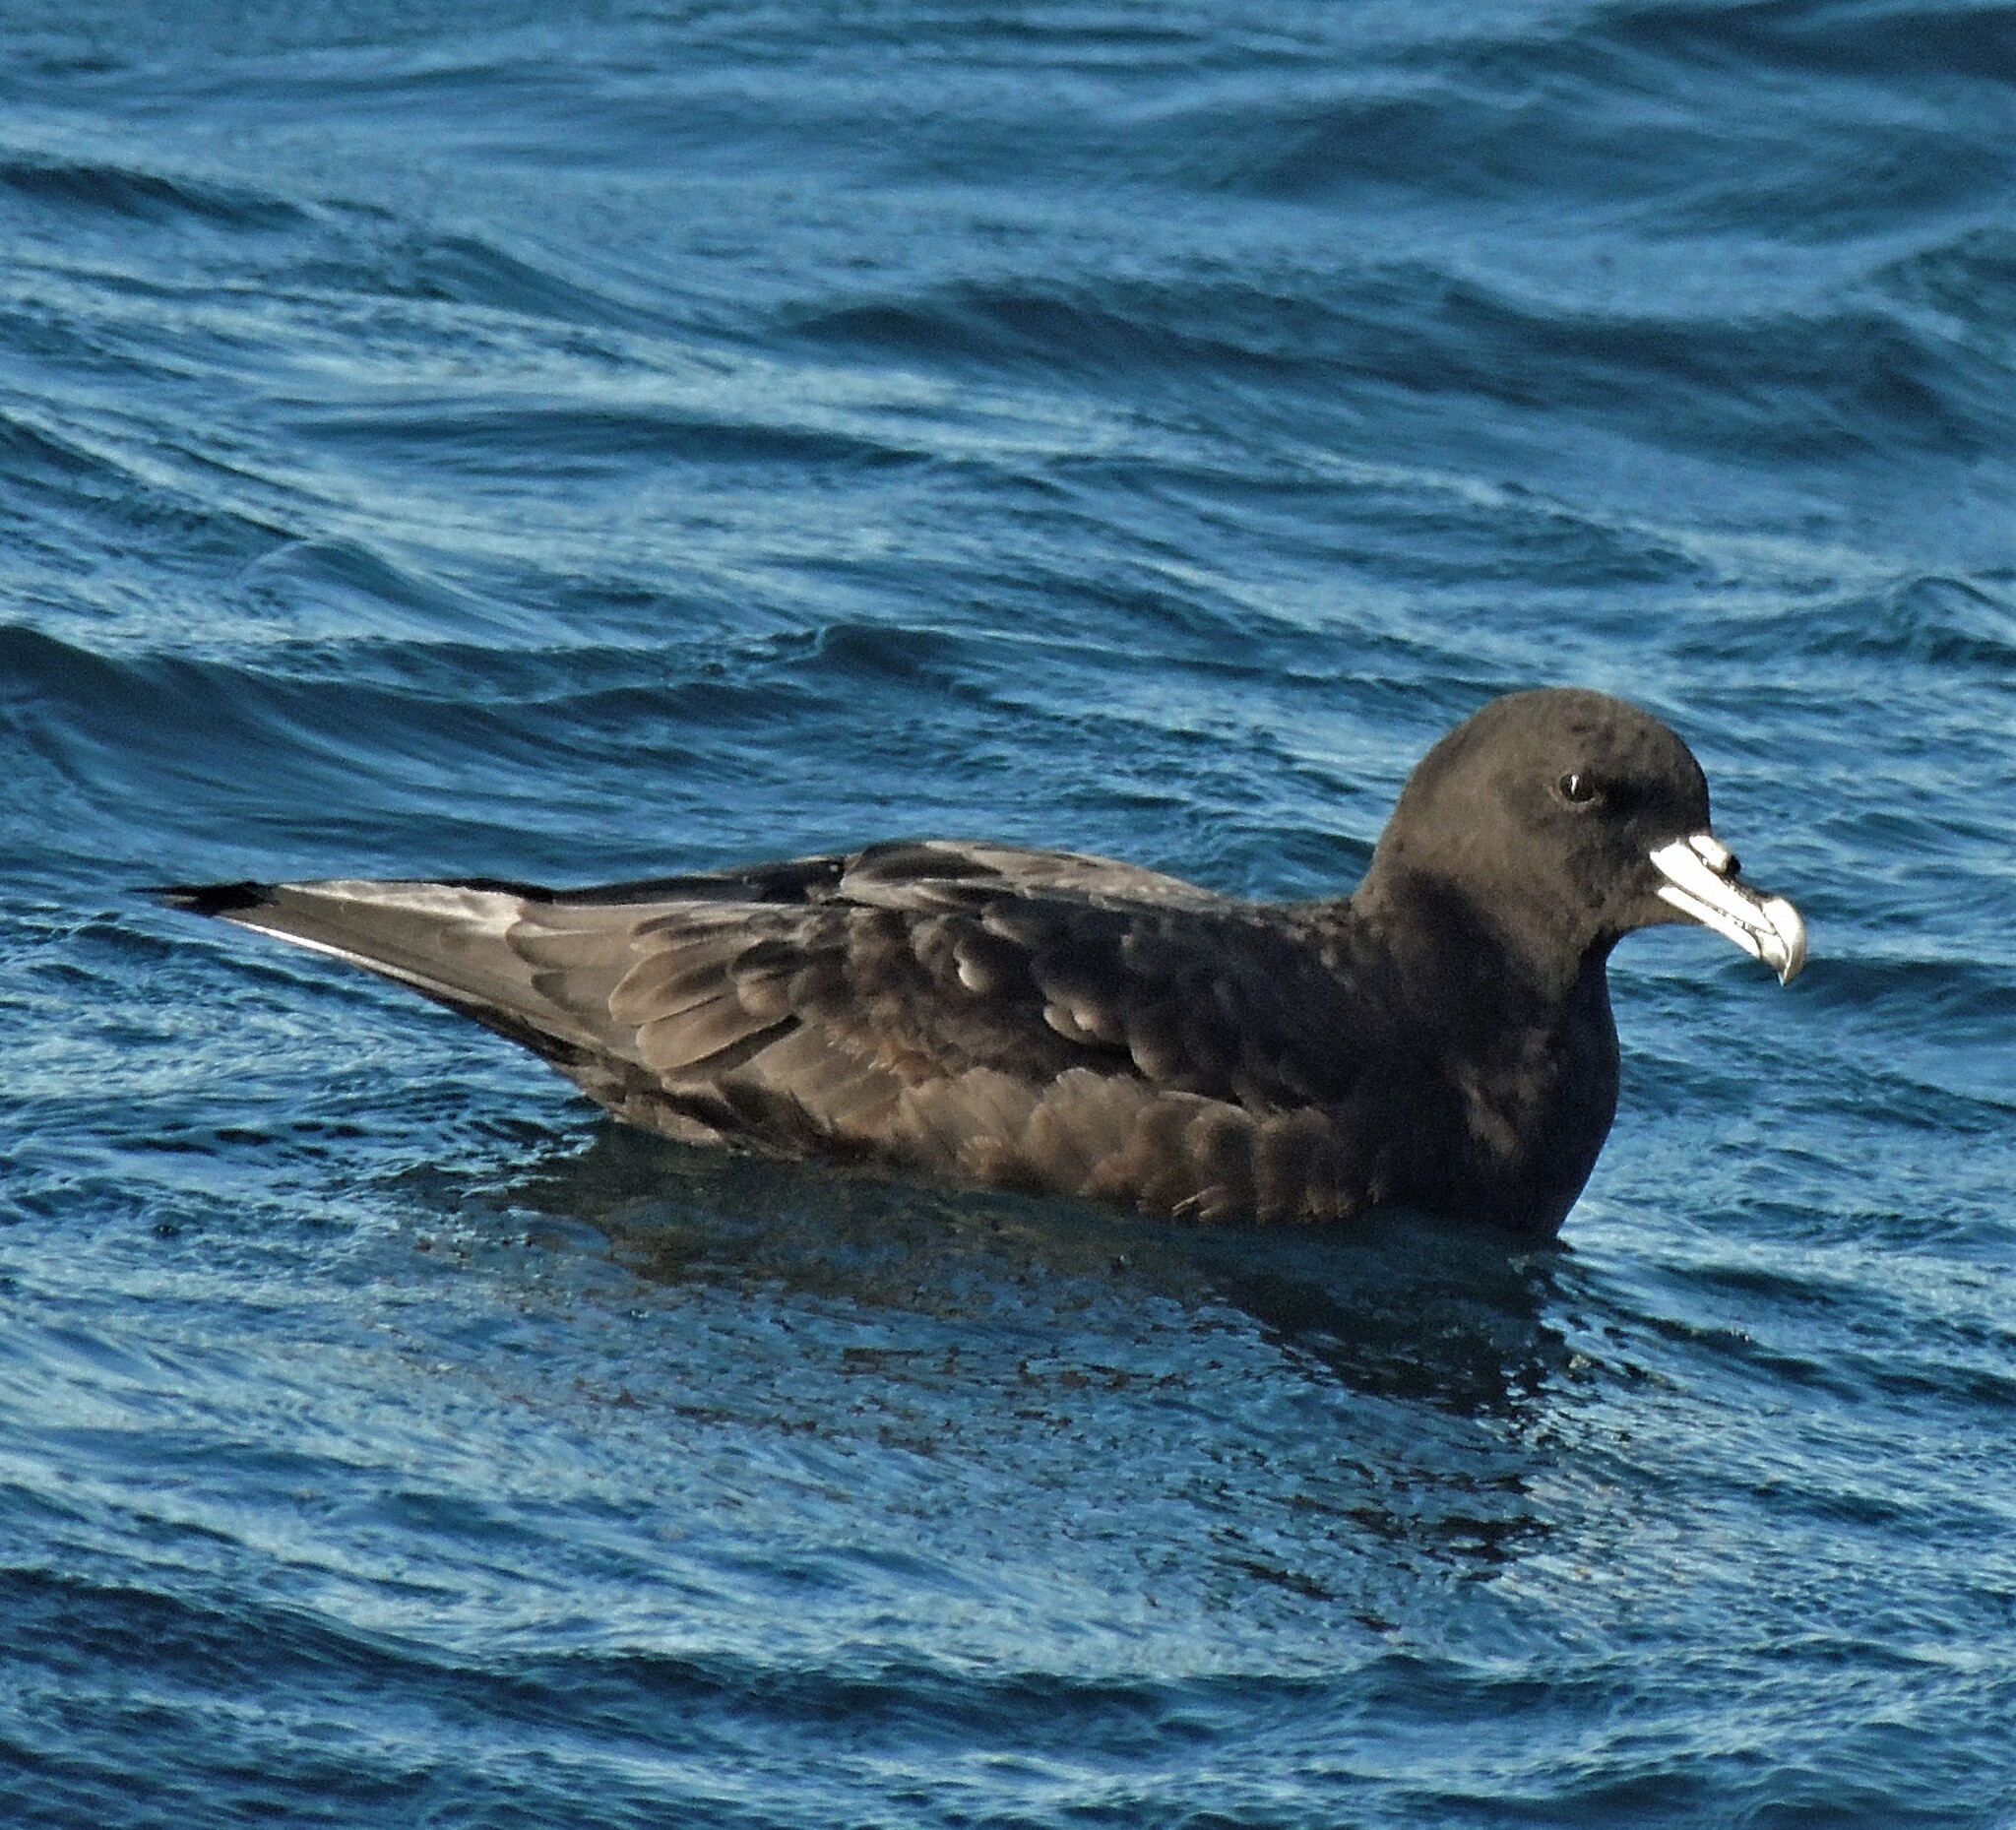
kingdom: Animalia
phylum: Chordata
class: Aves
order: Procellariiformes
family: Procellariidae
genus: Procellaria
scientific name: Procellaria aequinoctialis
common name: White-chinned petrel
